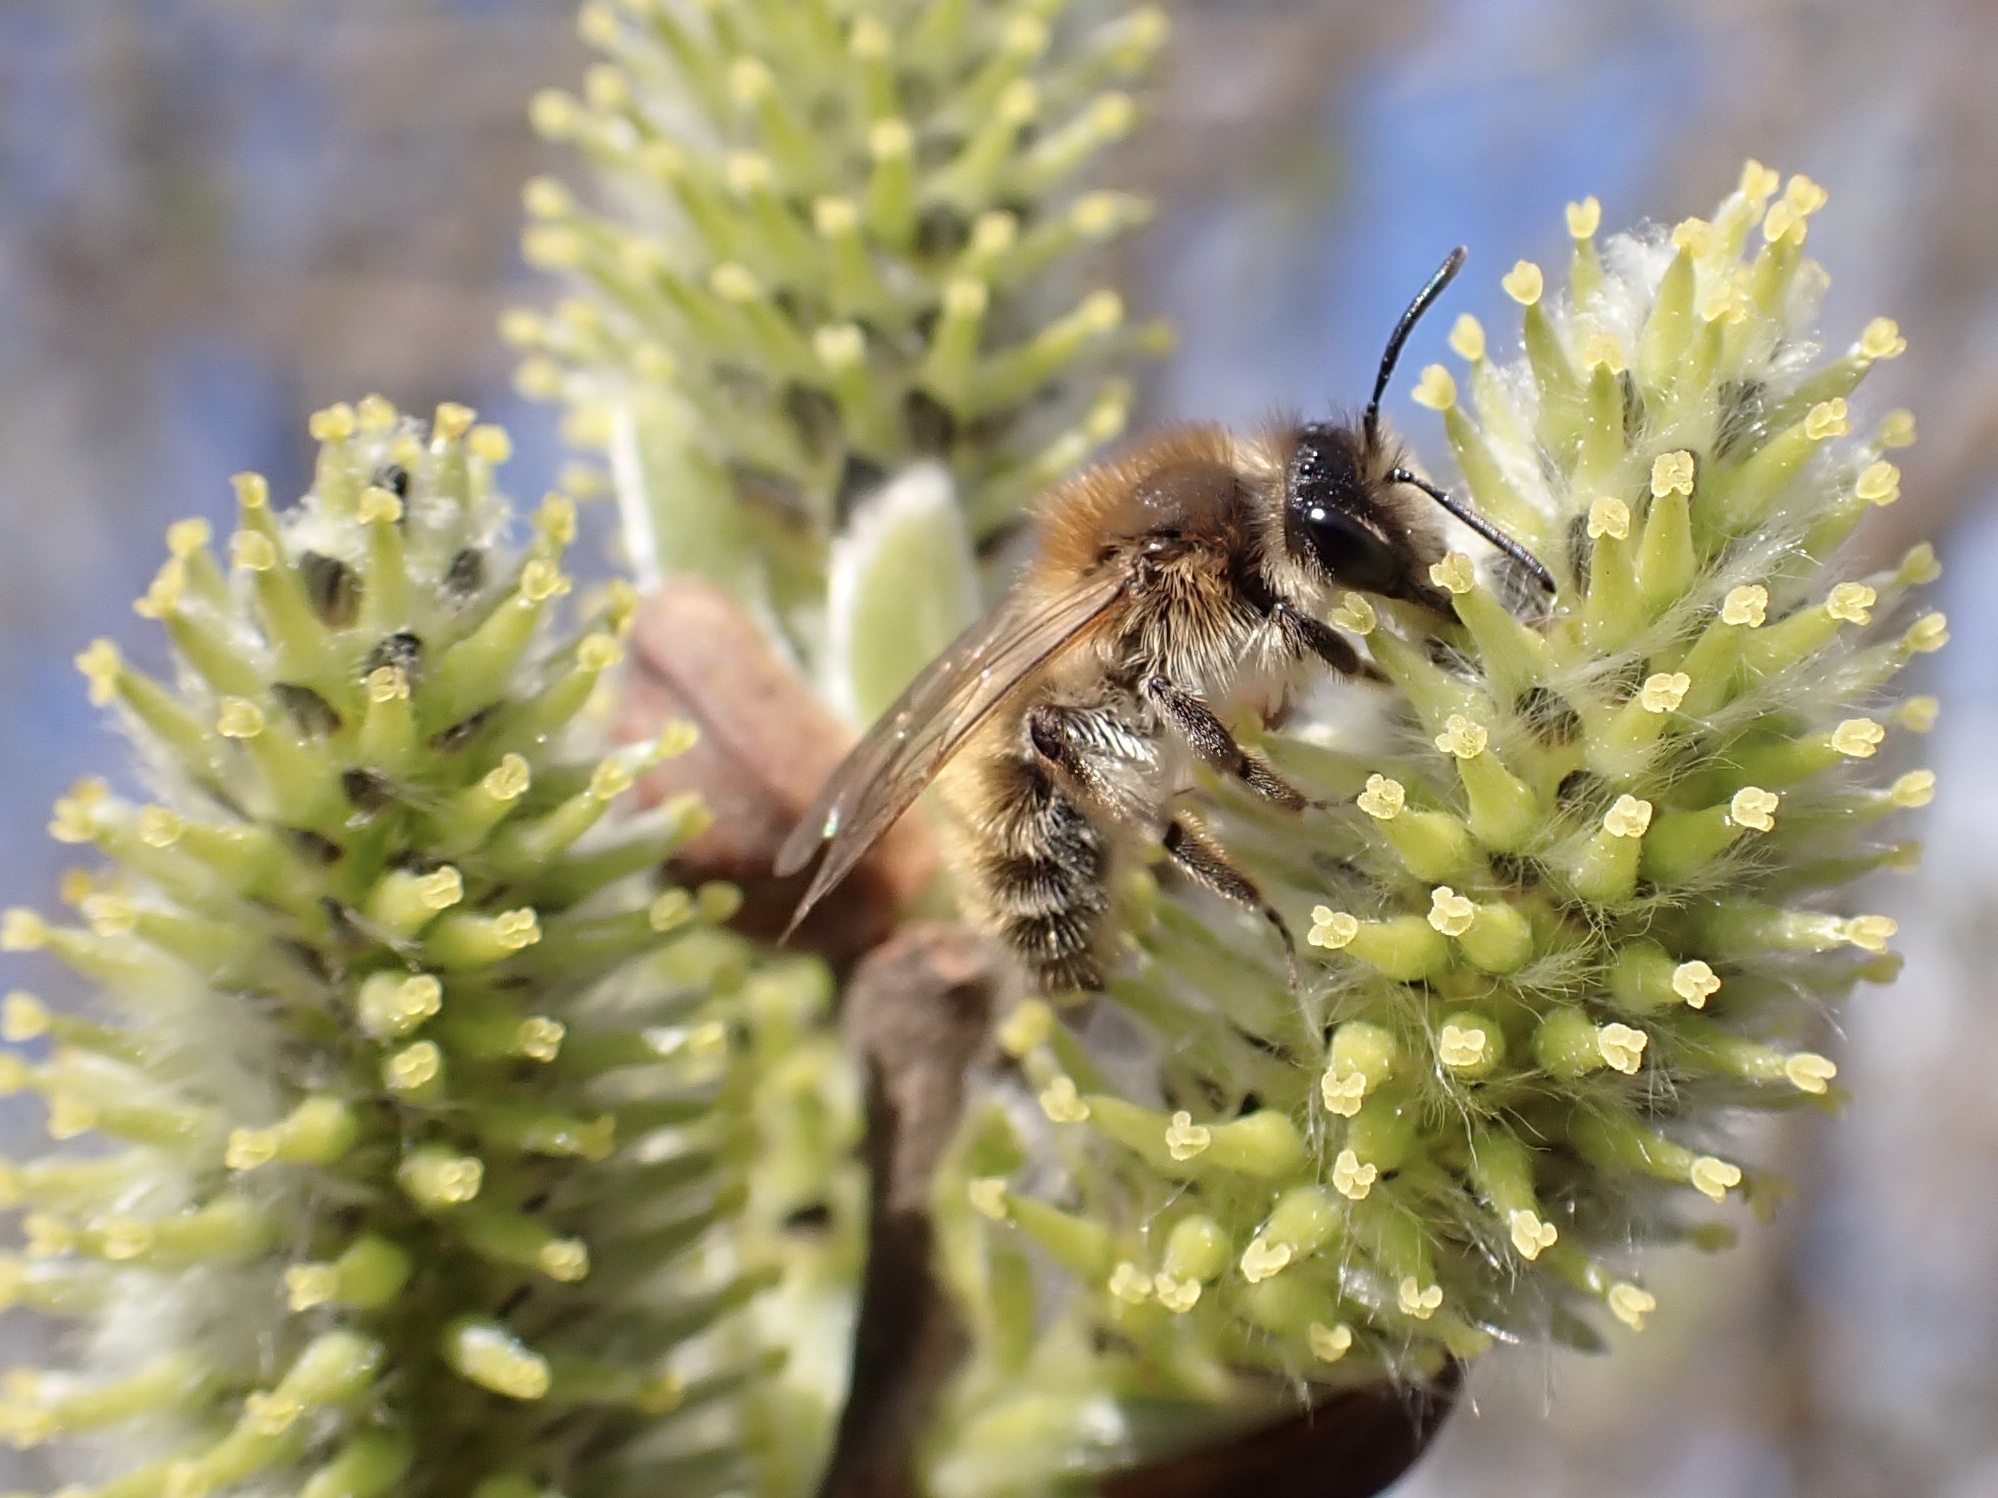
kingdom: Animalia
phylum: Arthropoda
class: Insecta
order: Hymenoptera
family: Andrenidae
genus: Andrena
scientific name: Andrena praecox
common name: Small sallow mining bee
